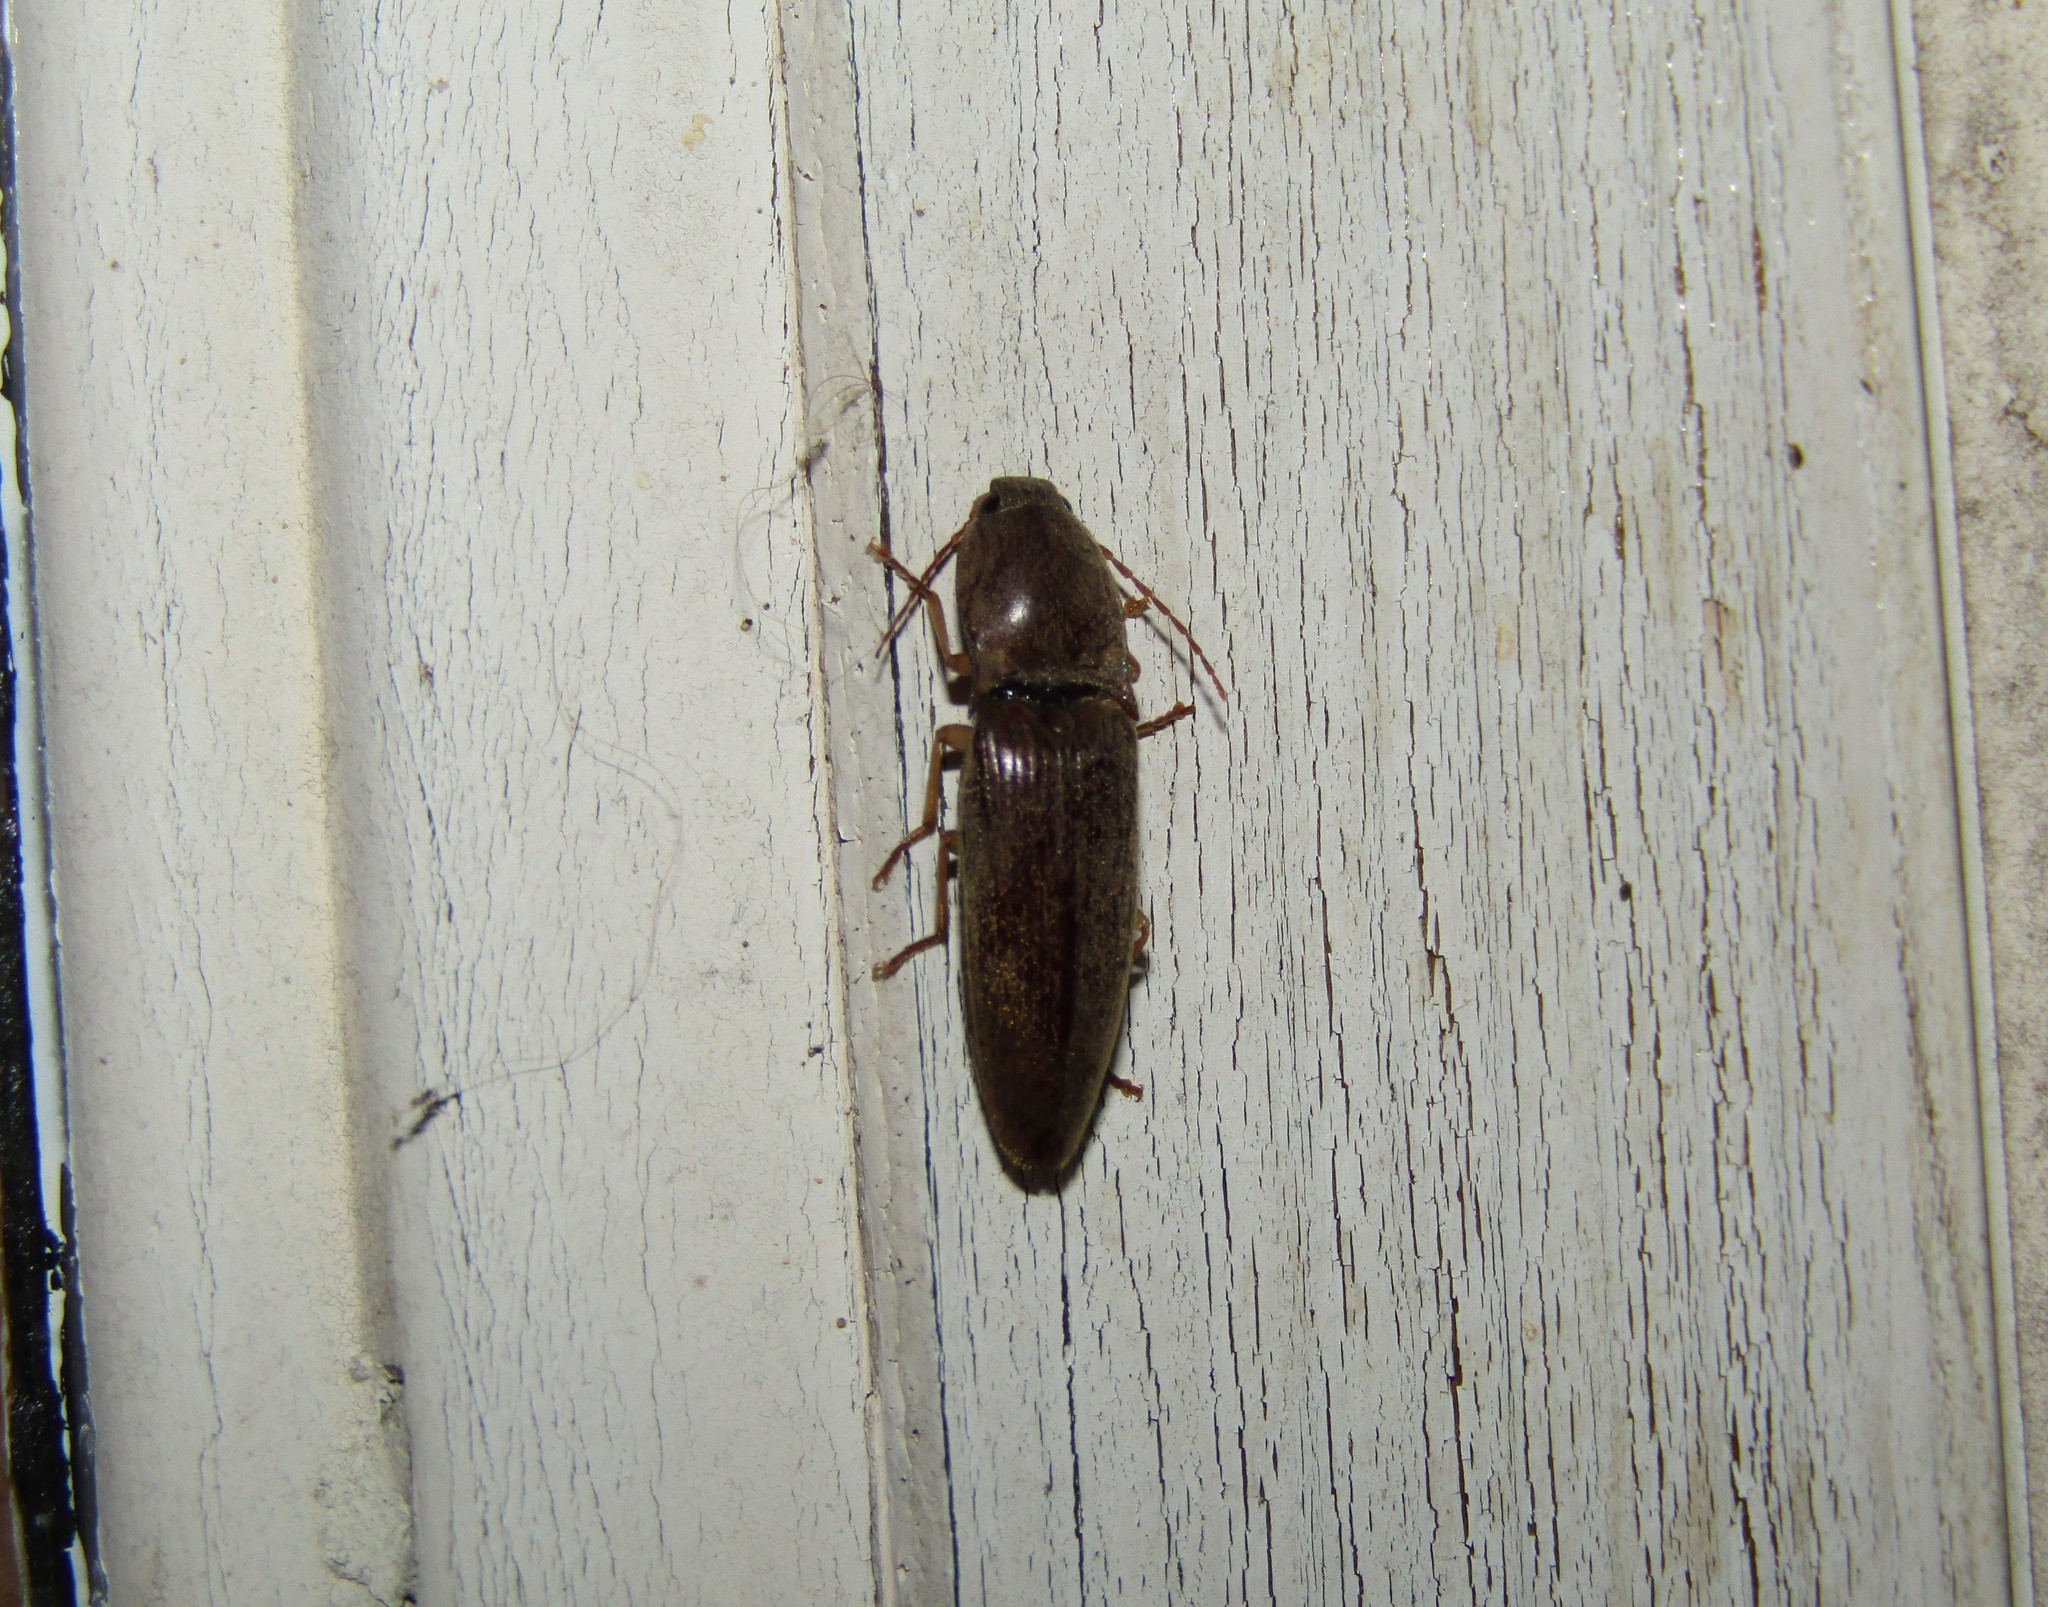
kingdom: Animalia
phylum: Arthropoda
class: Insecta
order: Coleoptera
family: Elateridae
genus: Monocrepidius
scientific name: Monocrepidius lividus
